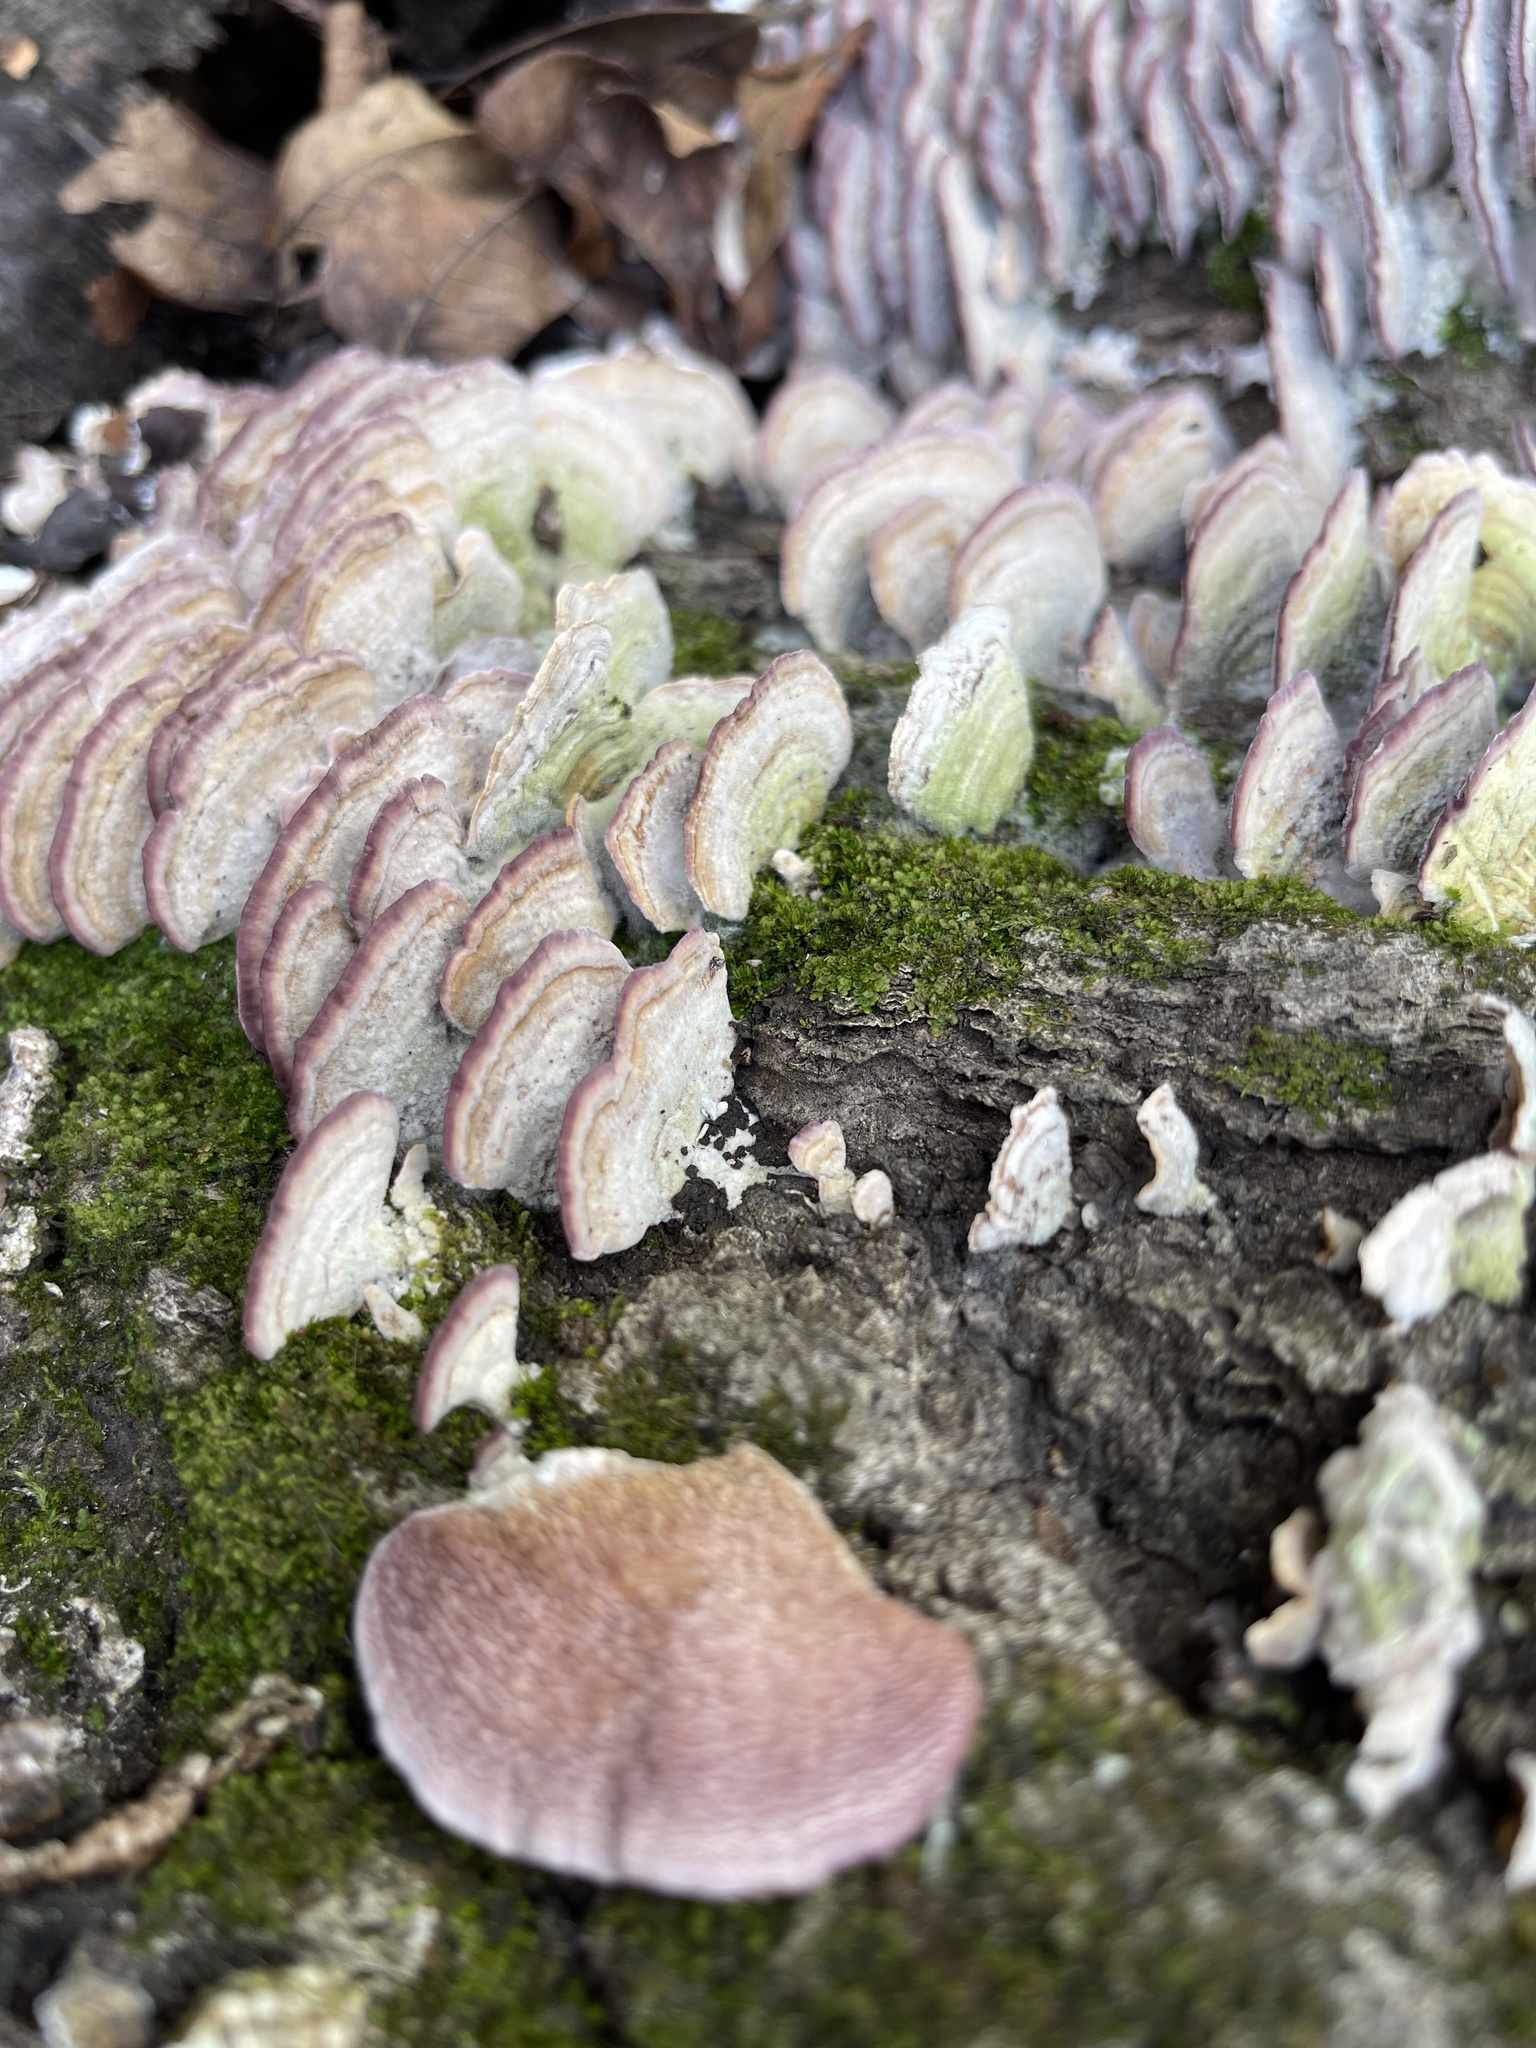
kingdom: Fungi
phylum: Basidiomycota
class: Agaricomycetes
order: Hymenochaetales
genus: Trichaptum
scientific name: Trichaptum biforme
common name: Violet-toothed polypore
